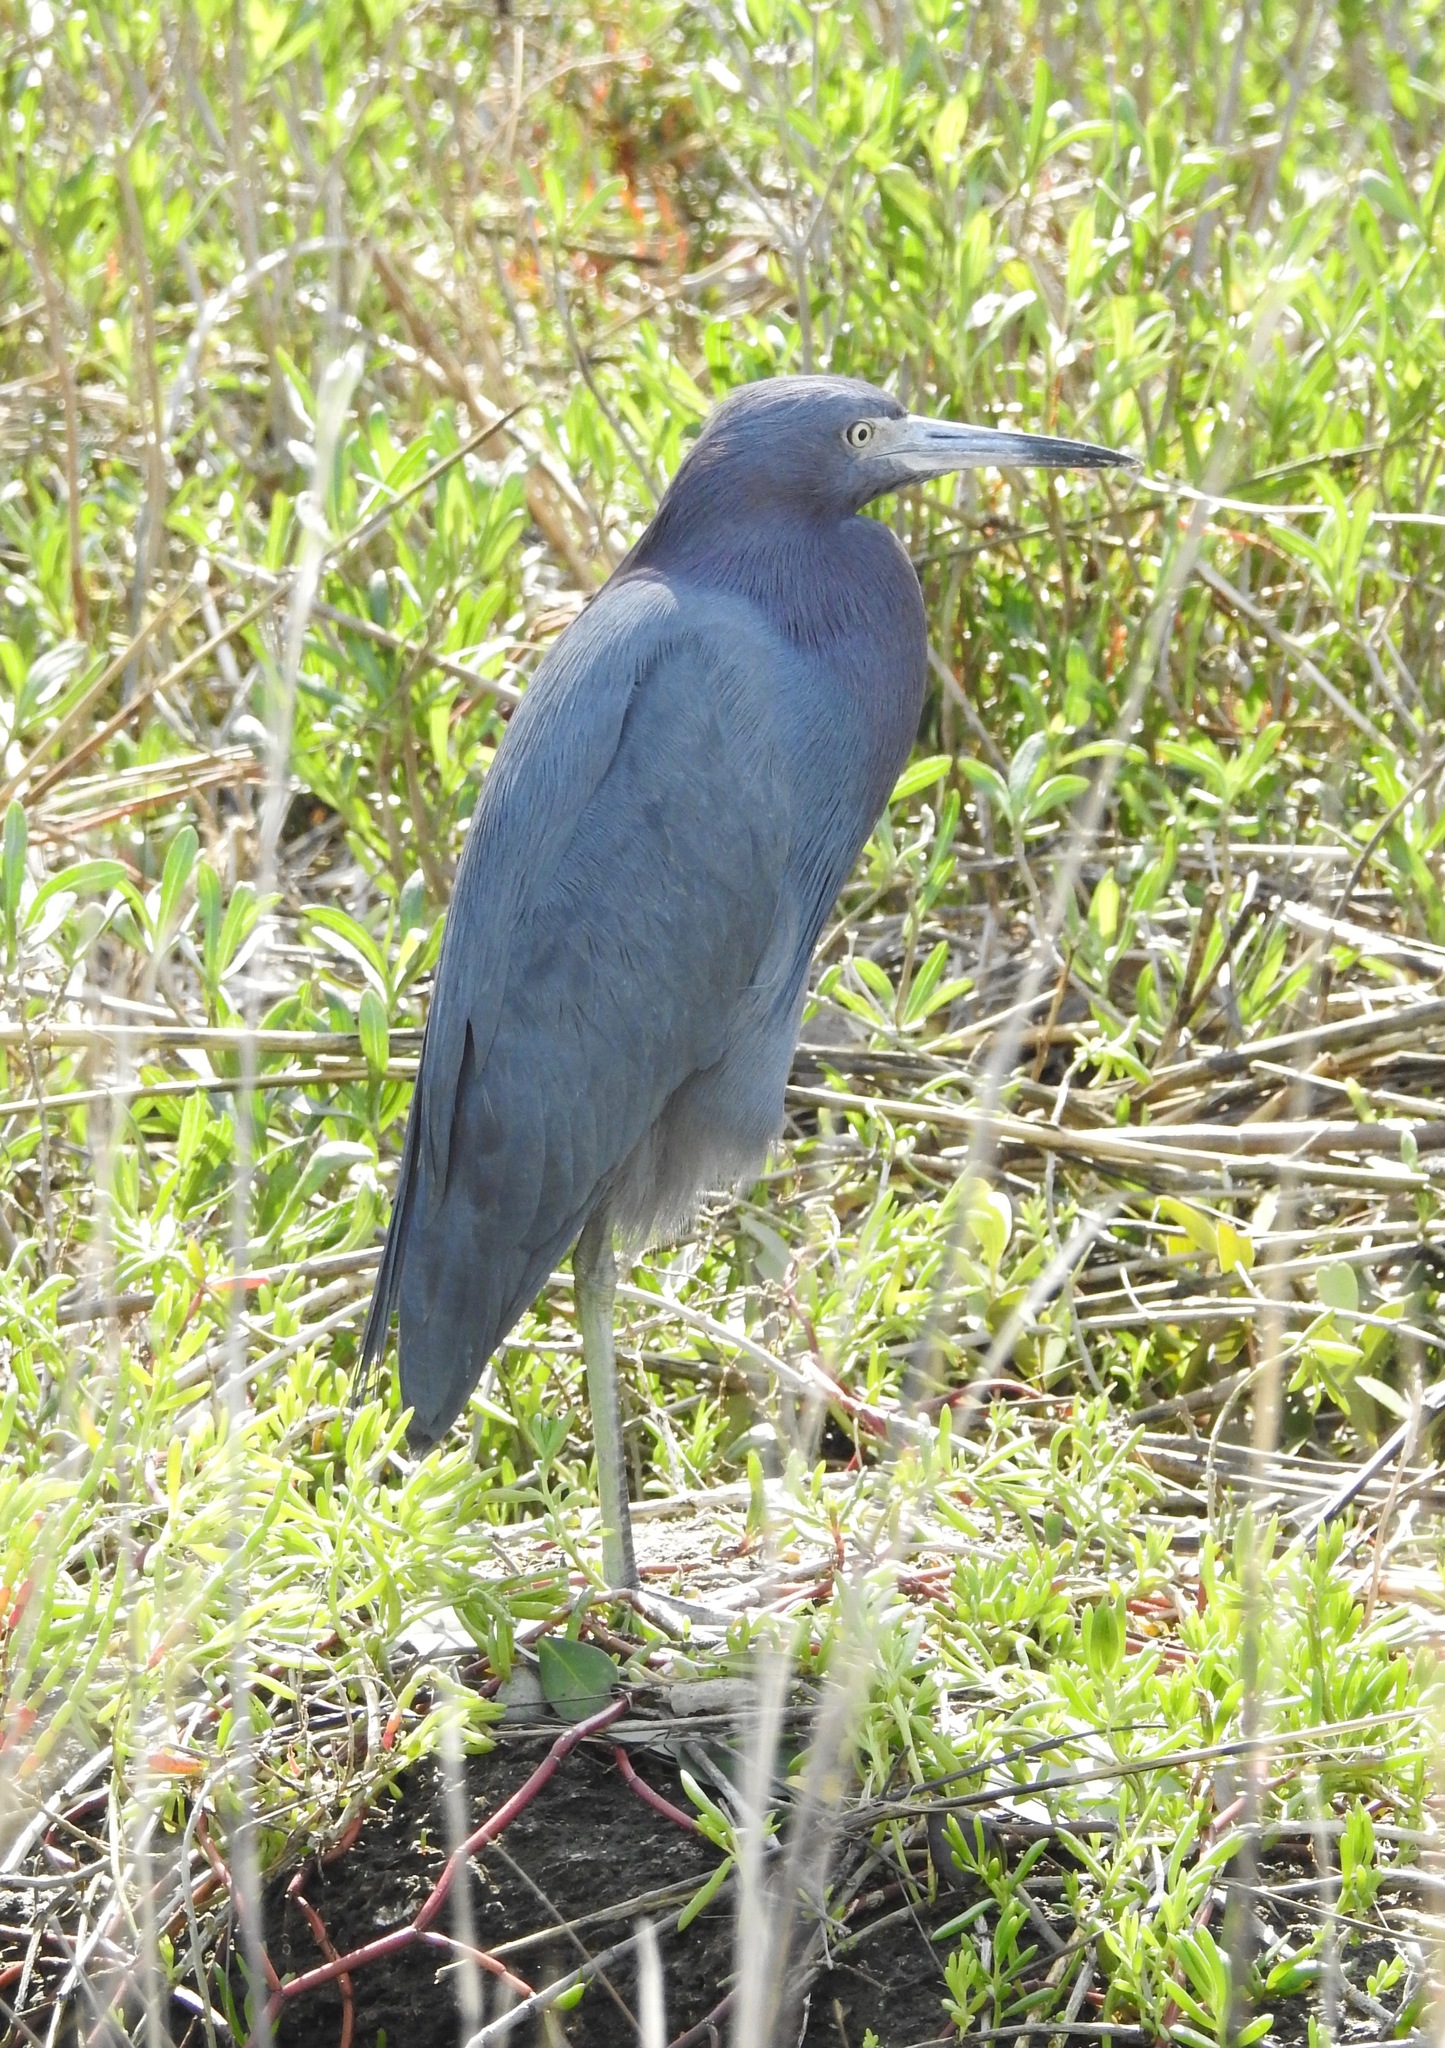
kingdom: Animalia
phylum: Chordata
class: Aves
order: Pelecaniformes
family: Ardeidae
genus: Egretta
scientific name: Egretta caerulea
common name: Little blue heron
